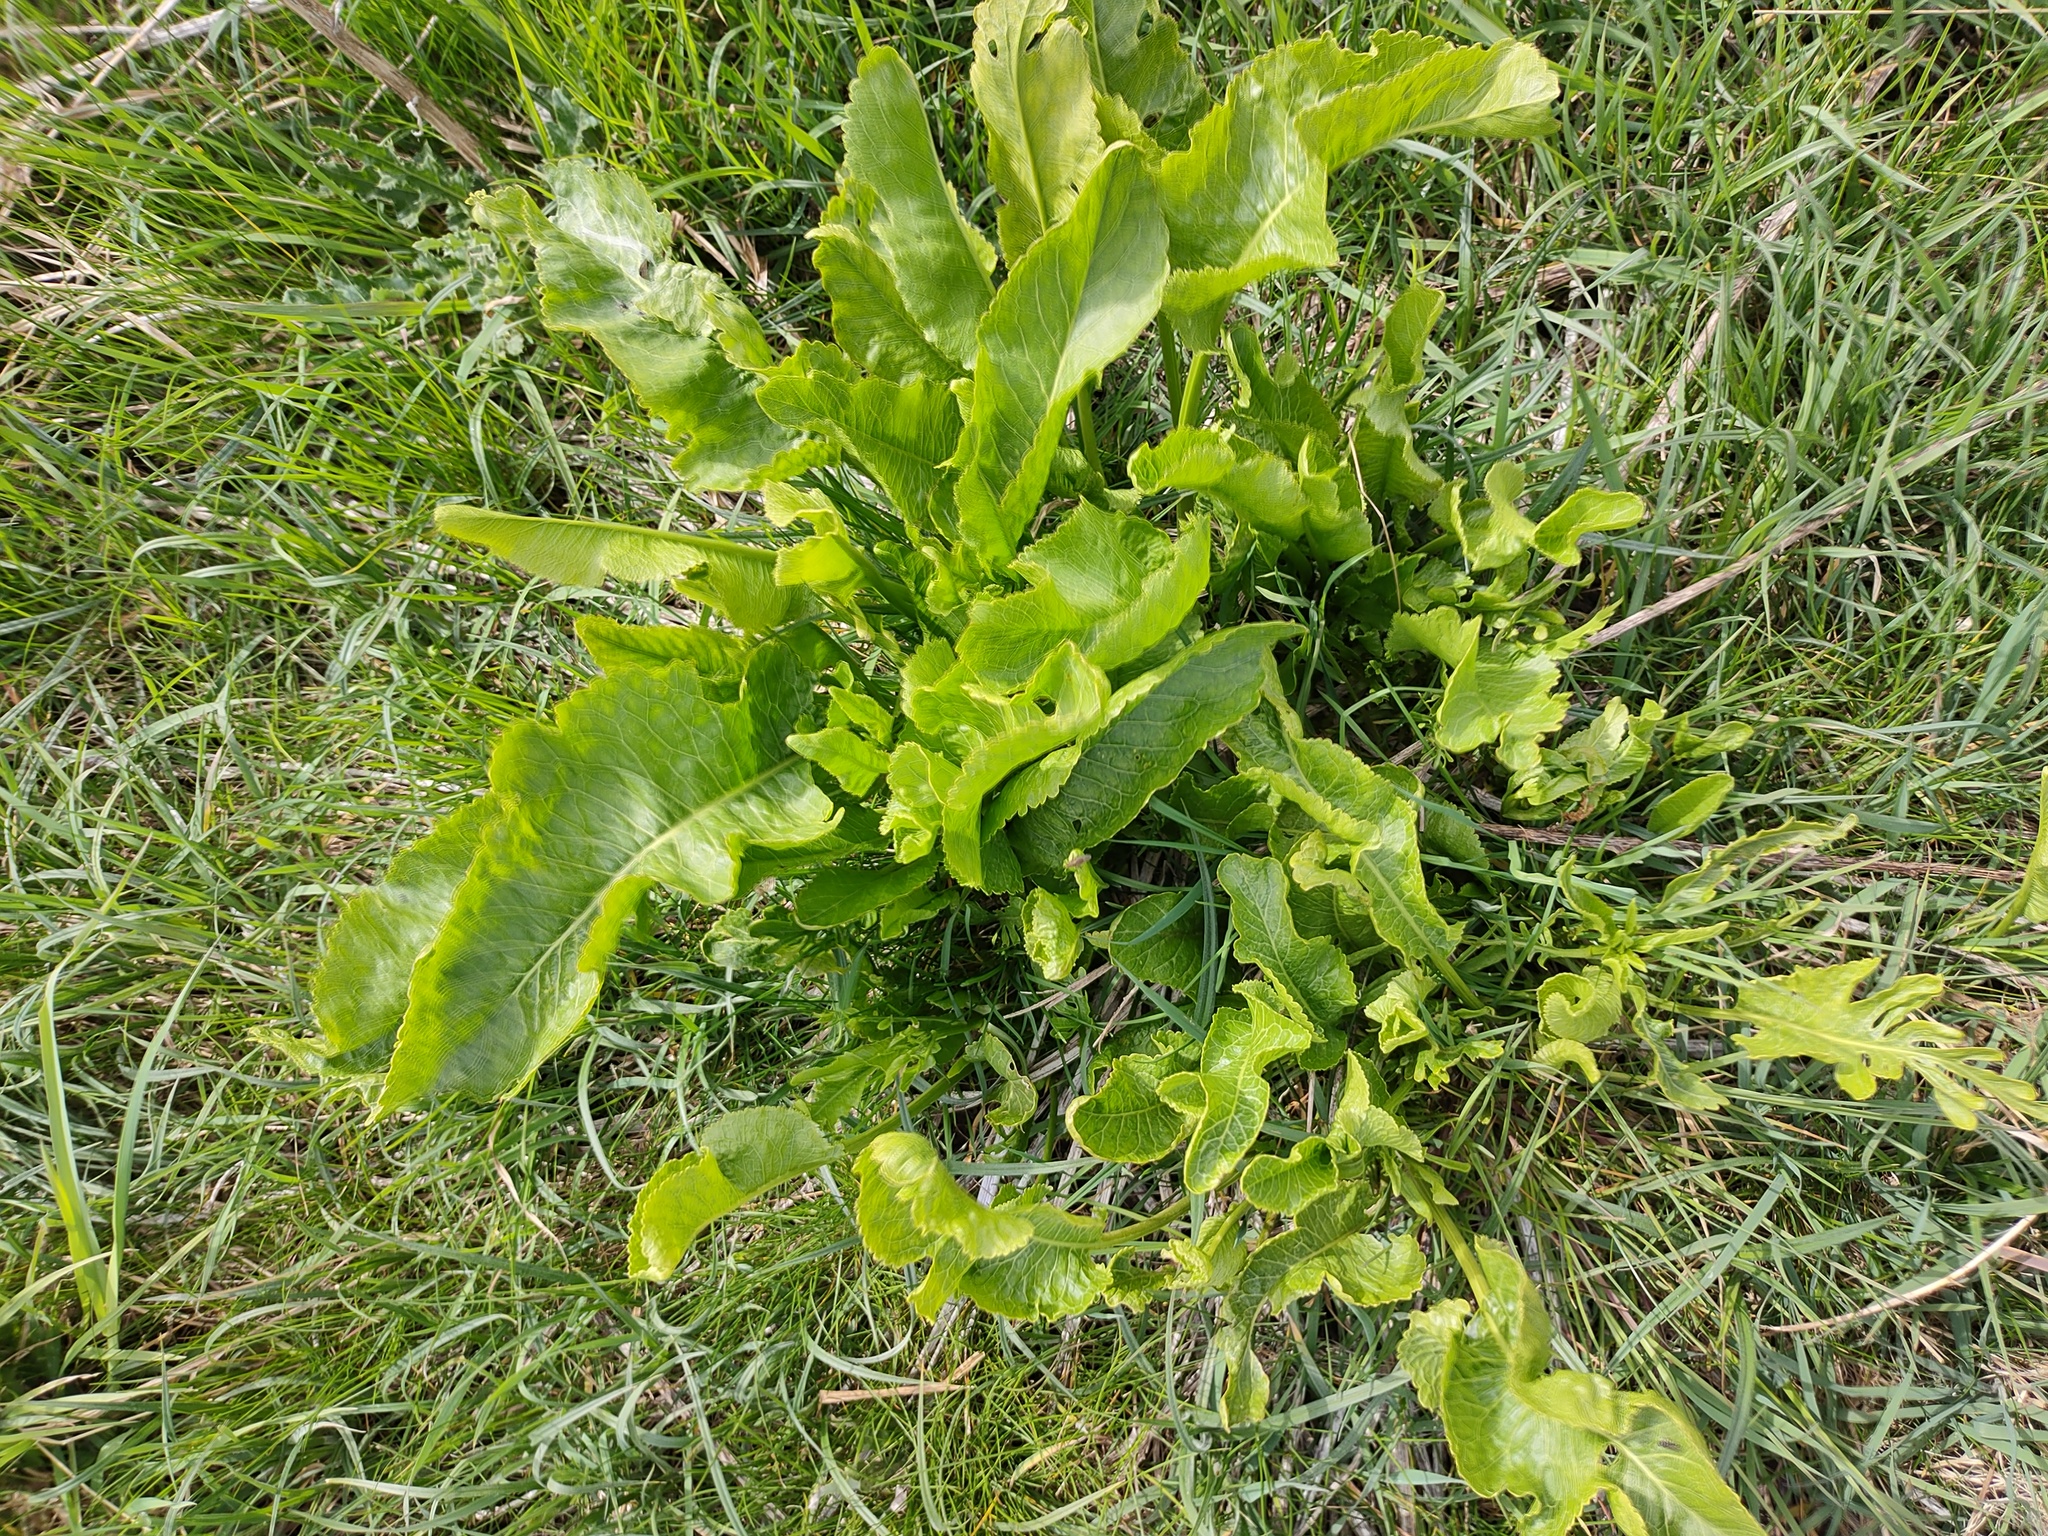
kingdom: Plantae
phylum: Tracheophyta
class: Magnoliopsida
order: Brassicales
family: Brassicaceae
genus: Armoracia
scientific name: Armoracia rusticana
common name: Horseradish
